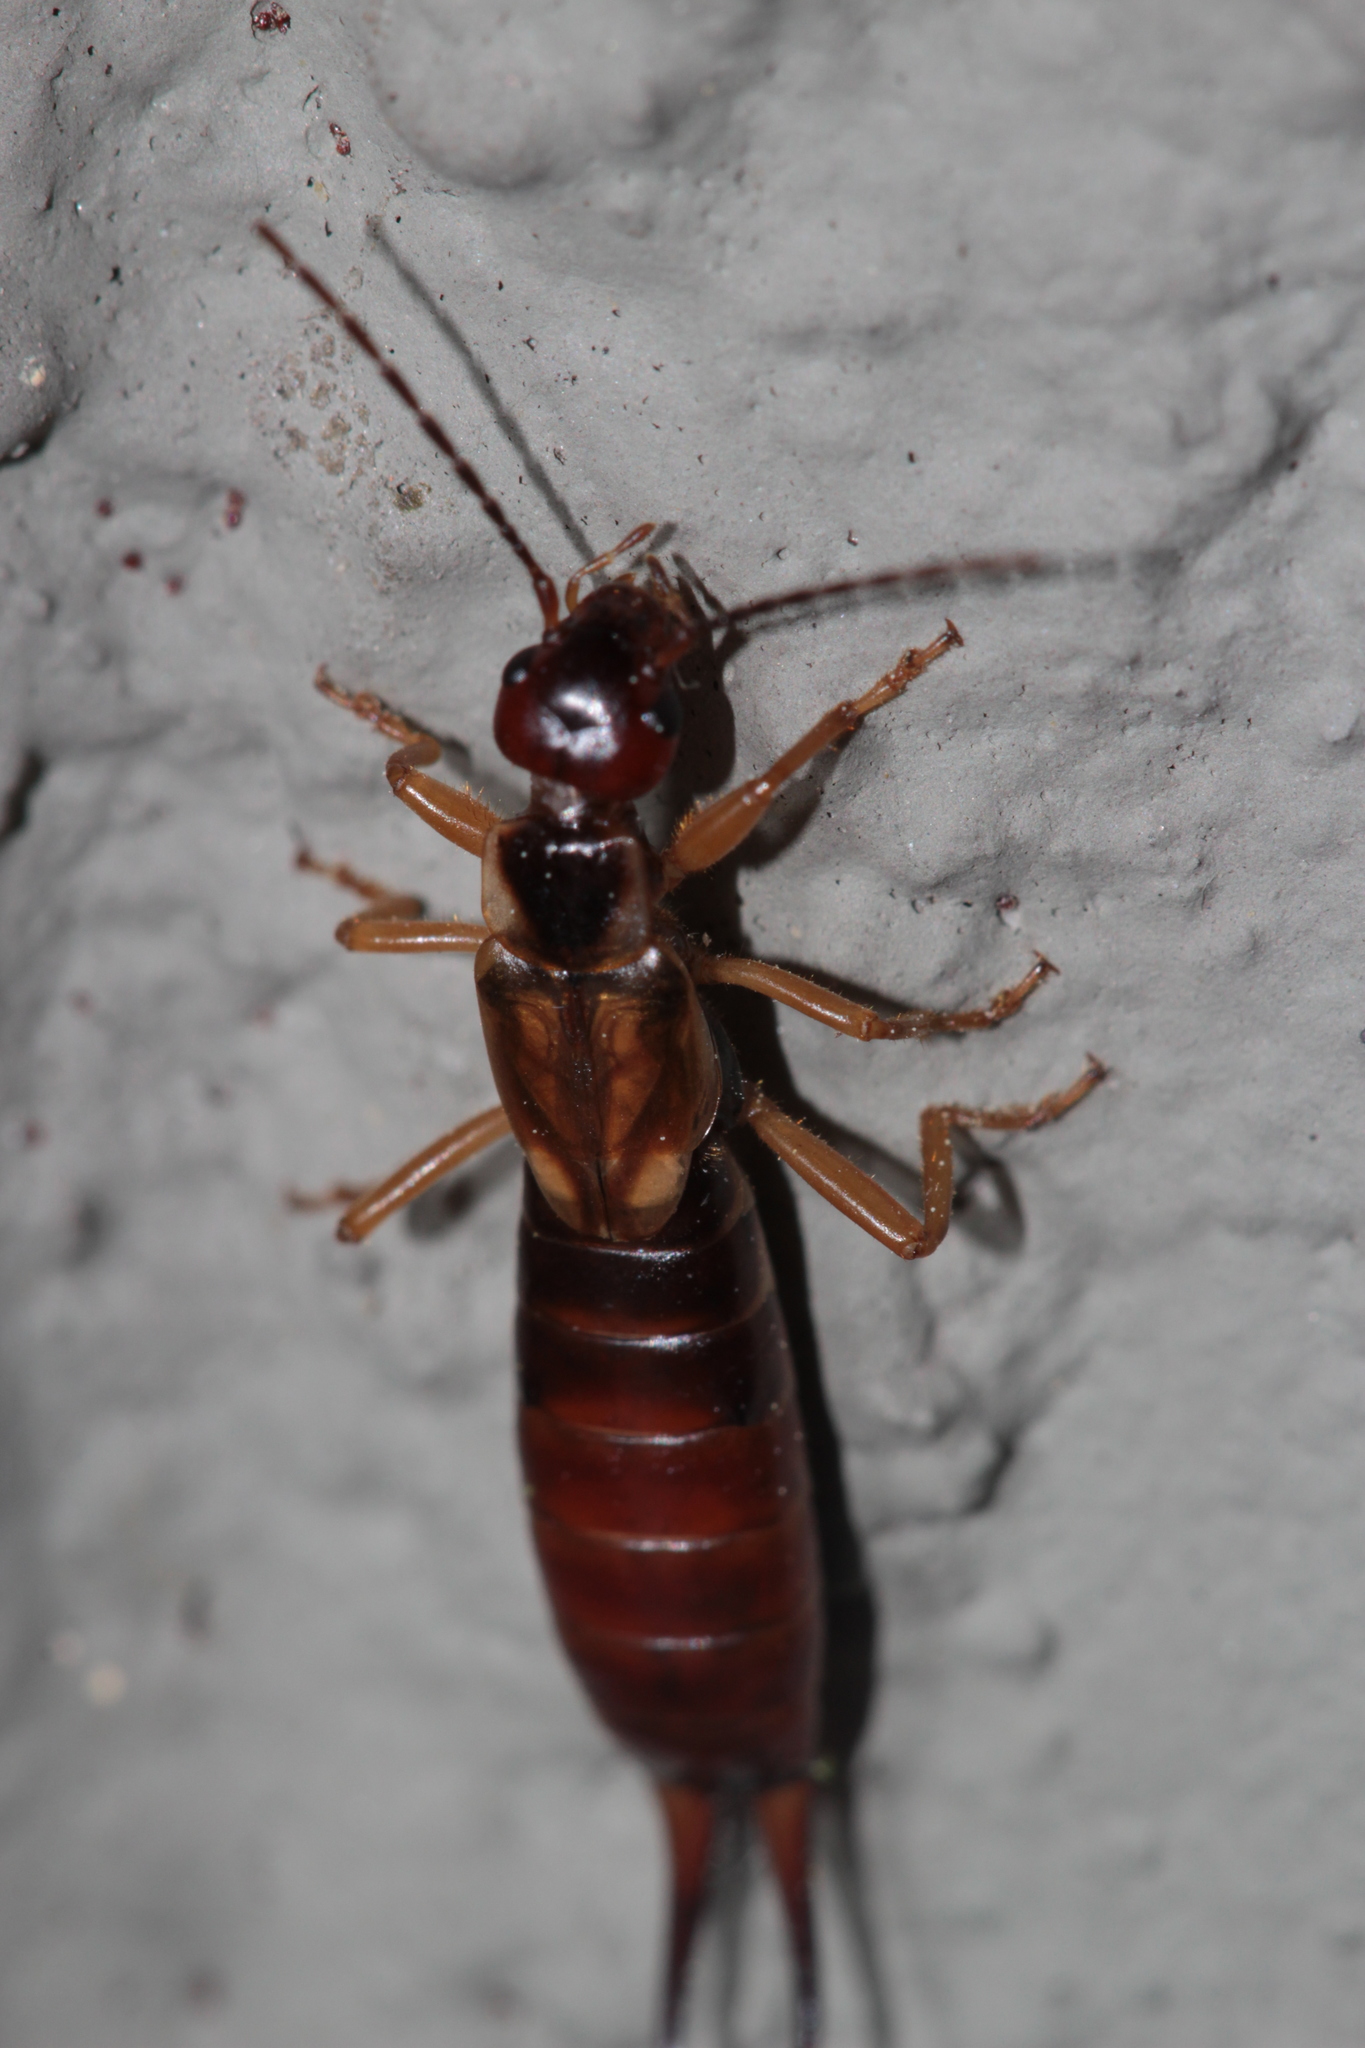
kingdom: Animalia
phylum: Arthropoda
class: Insecta
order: Dermaptera
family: Forficulidae
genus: Forficula
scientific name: Forficula
